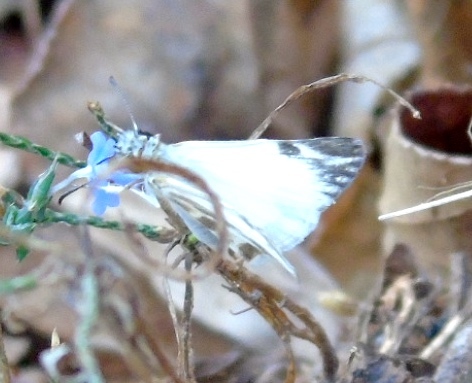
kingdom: Animalia
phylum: Arthropoda
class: Insecta
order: Lepidoptera
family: Hesperiidae
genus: Heliopetes
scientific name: Heliopetes macaira
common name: Turk's-cap white-skipper
